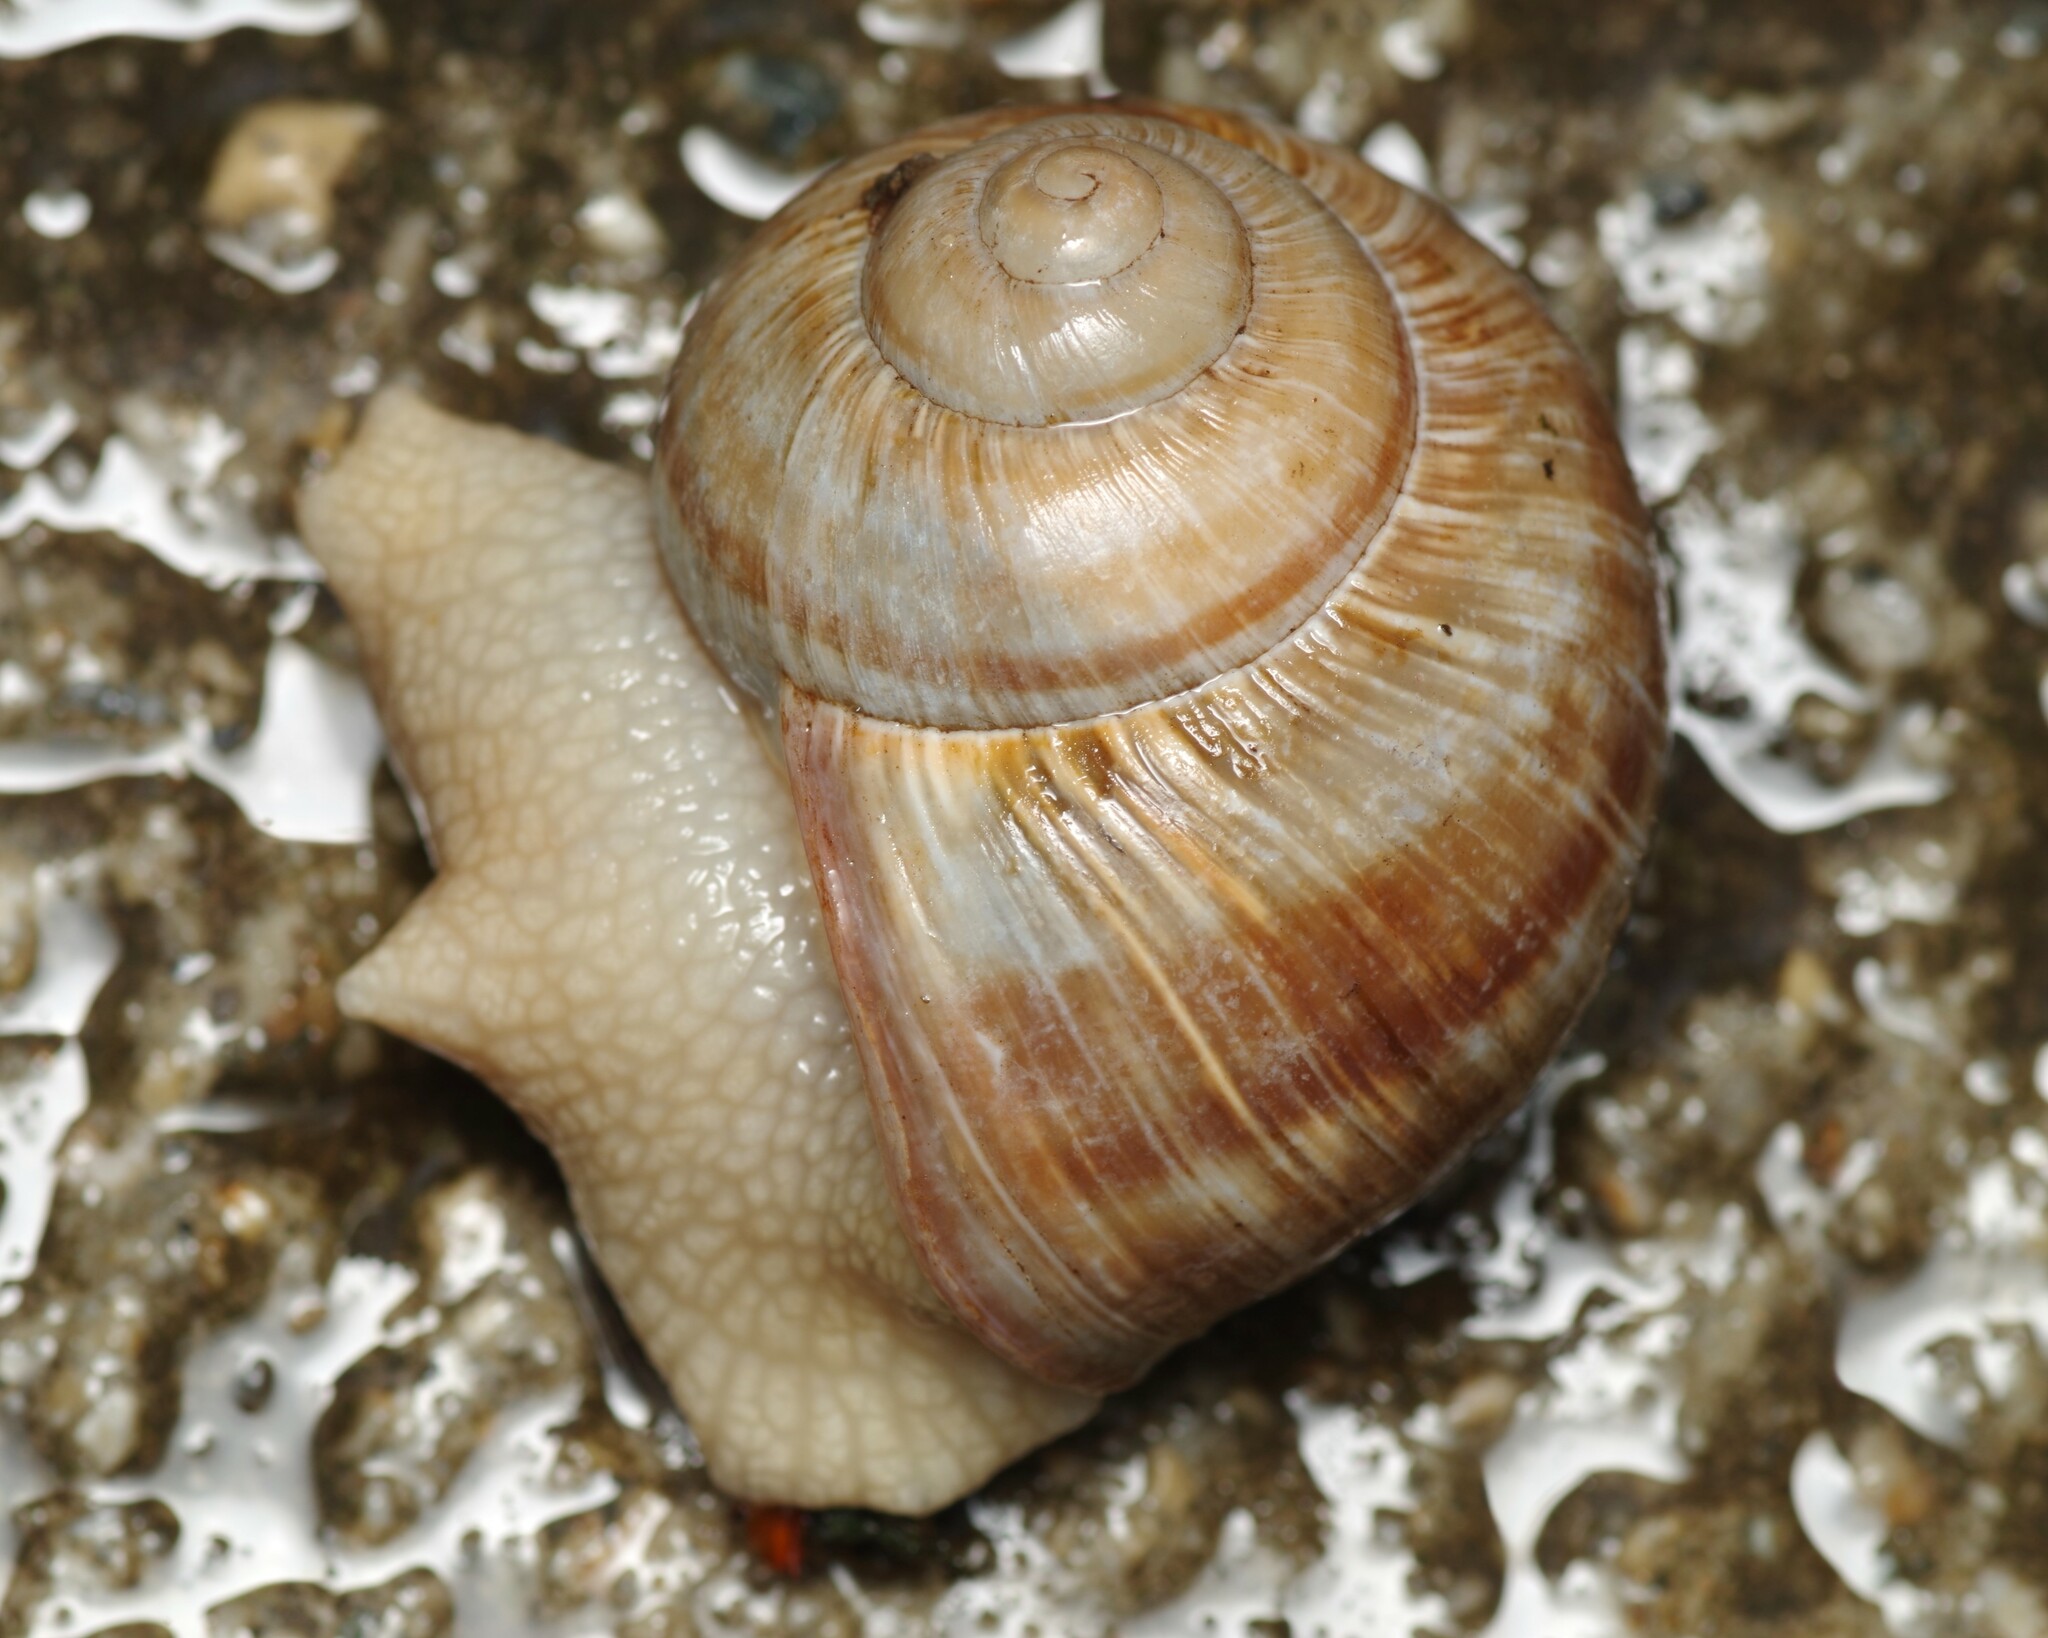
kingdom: Animalia
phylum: Mollusca
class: Gastropoda
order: Stylommatophora
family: Helicidae
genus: Helix
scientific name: Helix pomatia
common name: Roman snail
